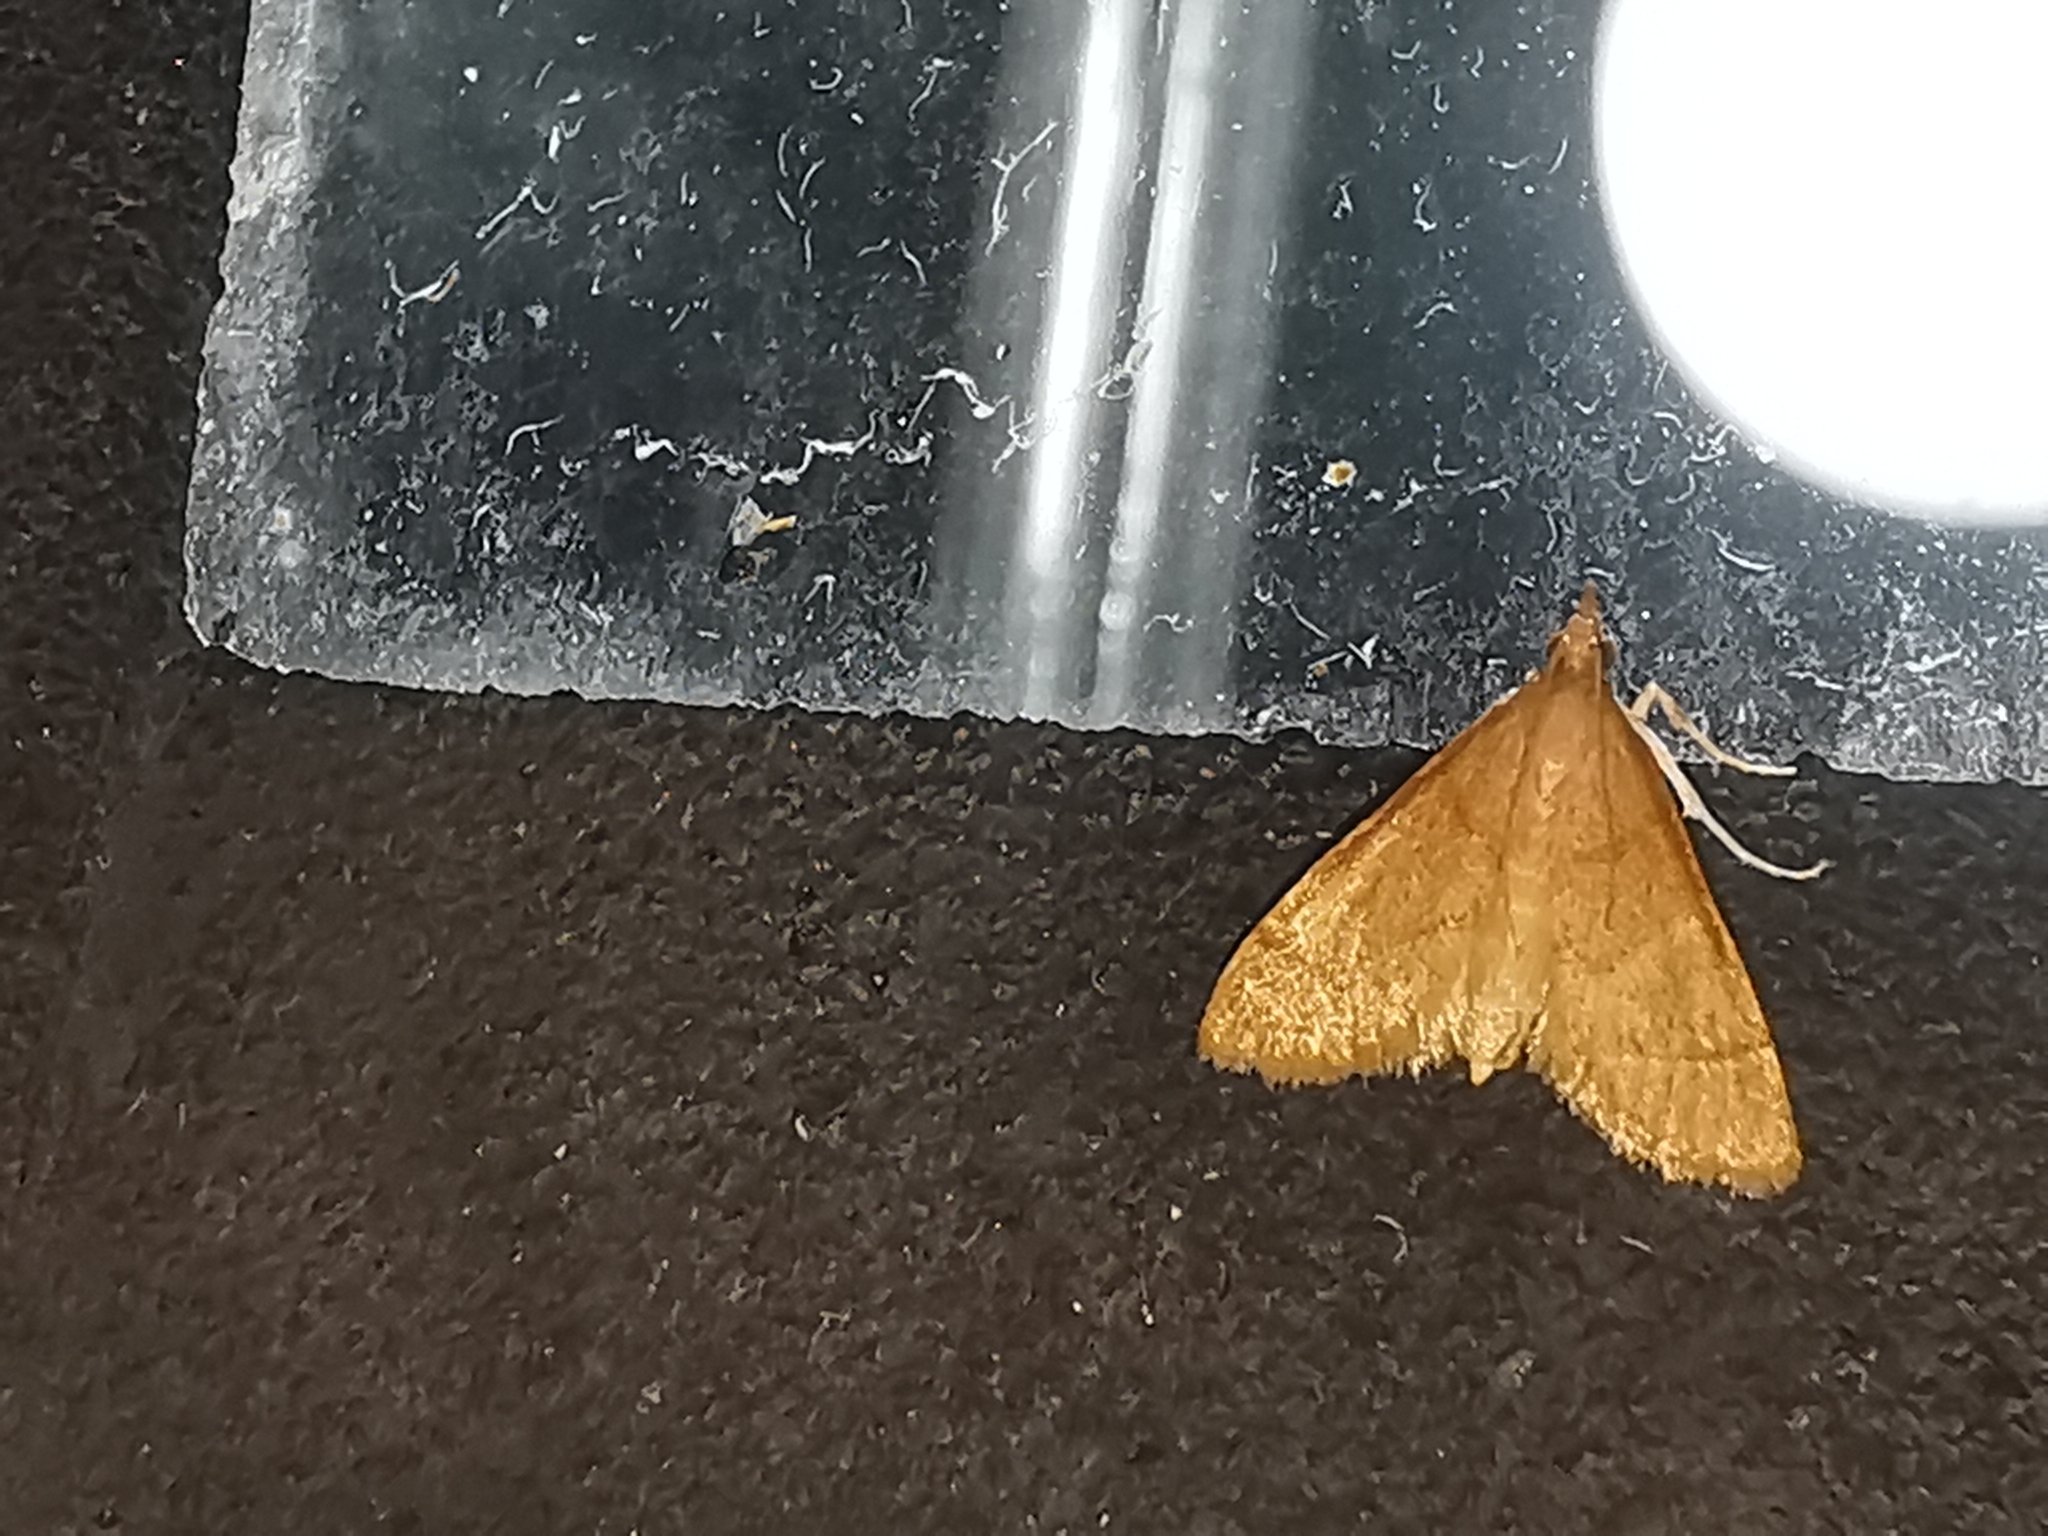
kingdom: Animalia
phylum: Arthropoda
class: Insecta
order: Lepidoptera
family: Crambidae
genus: Metasia
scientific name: Metasia rosealis
